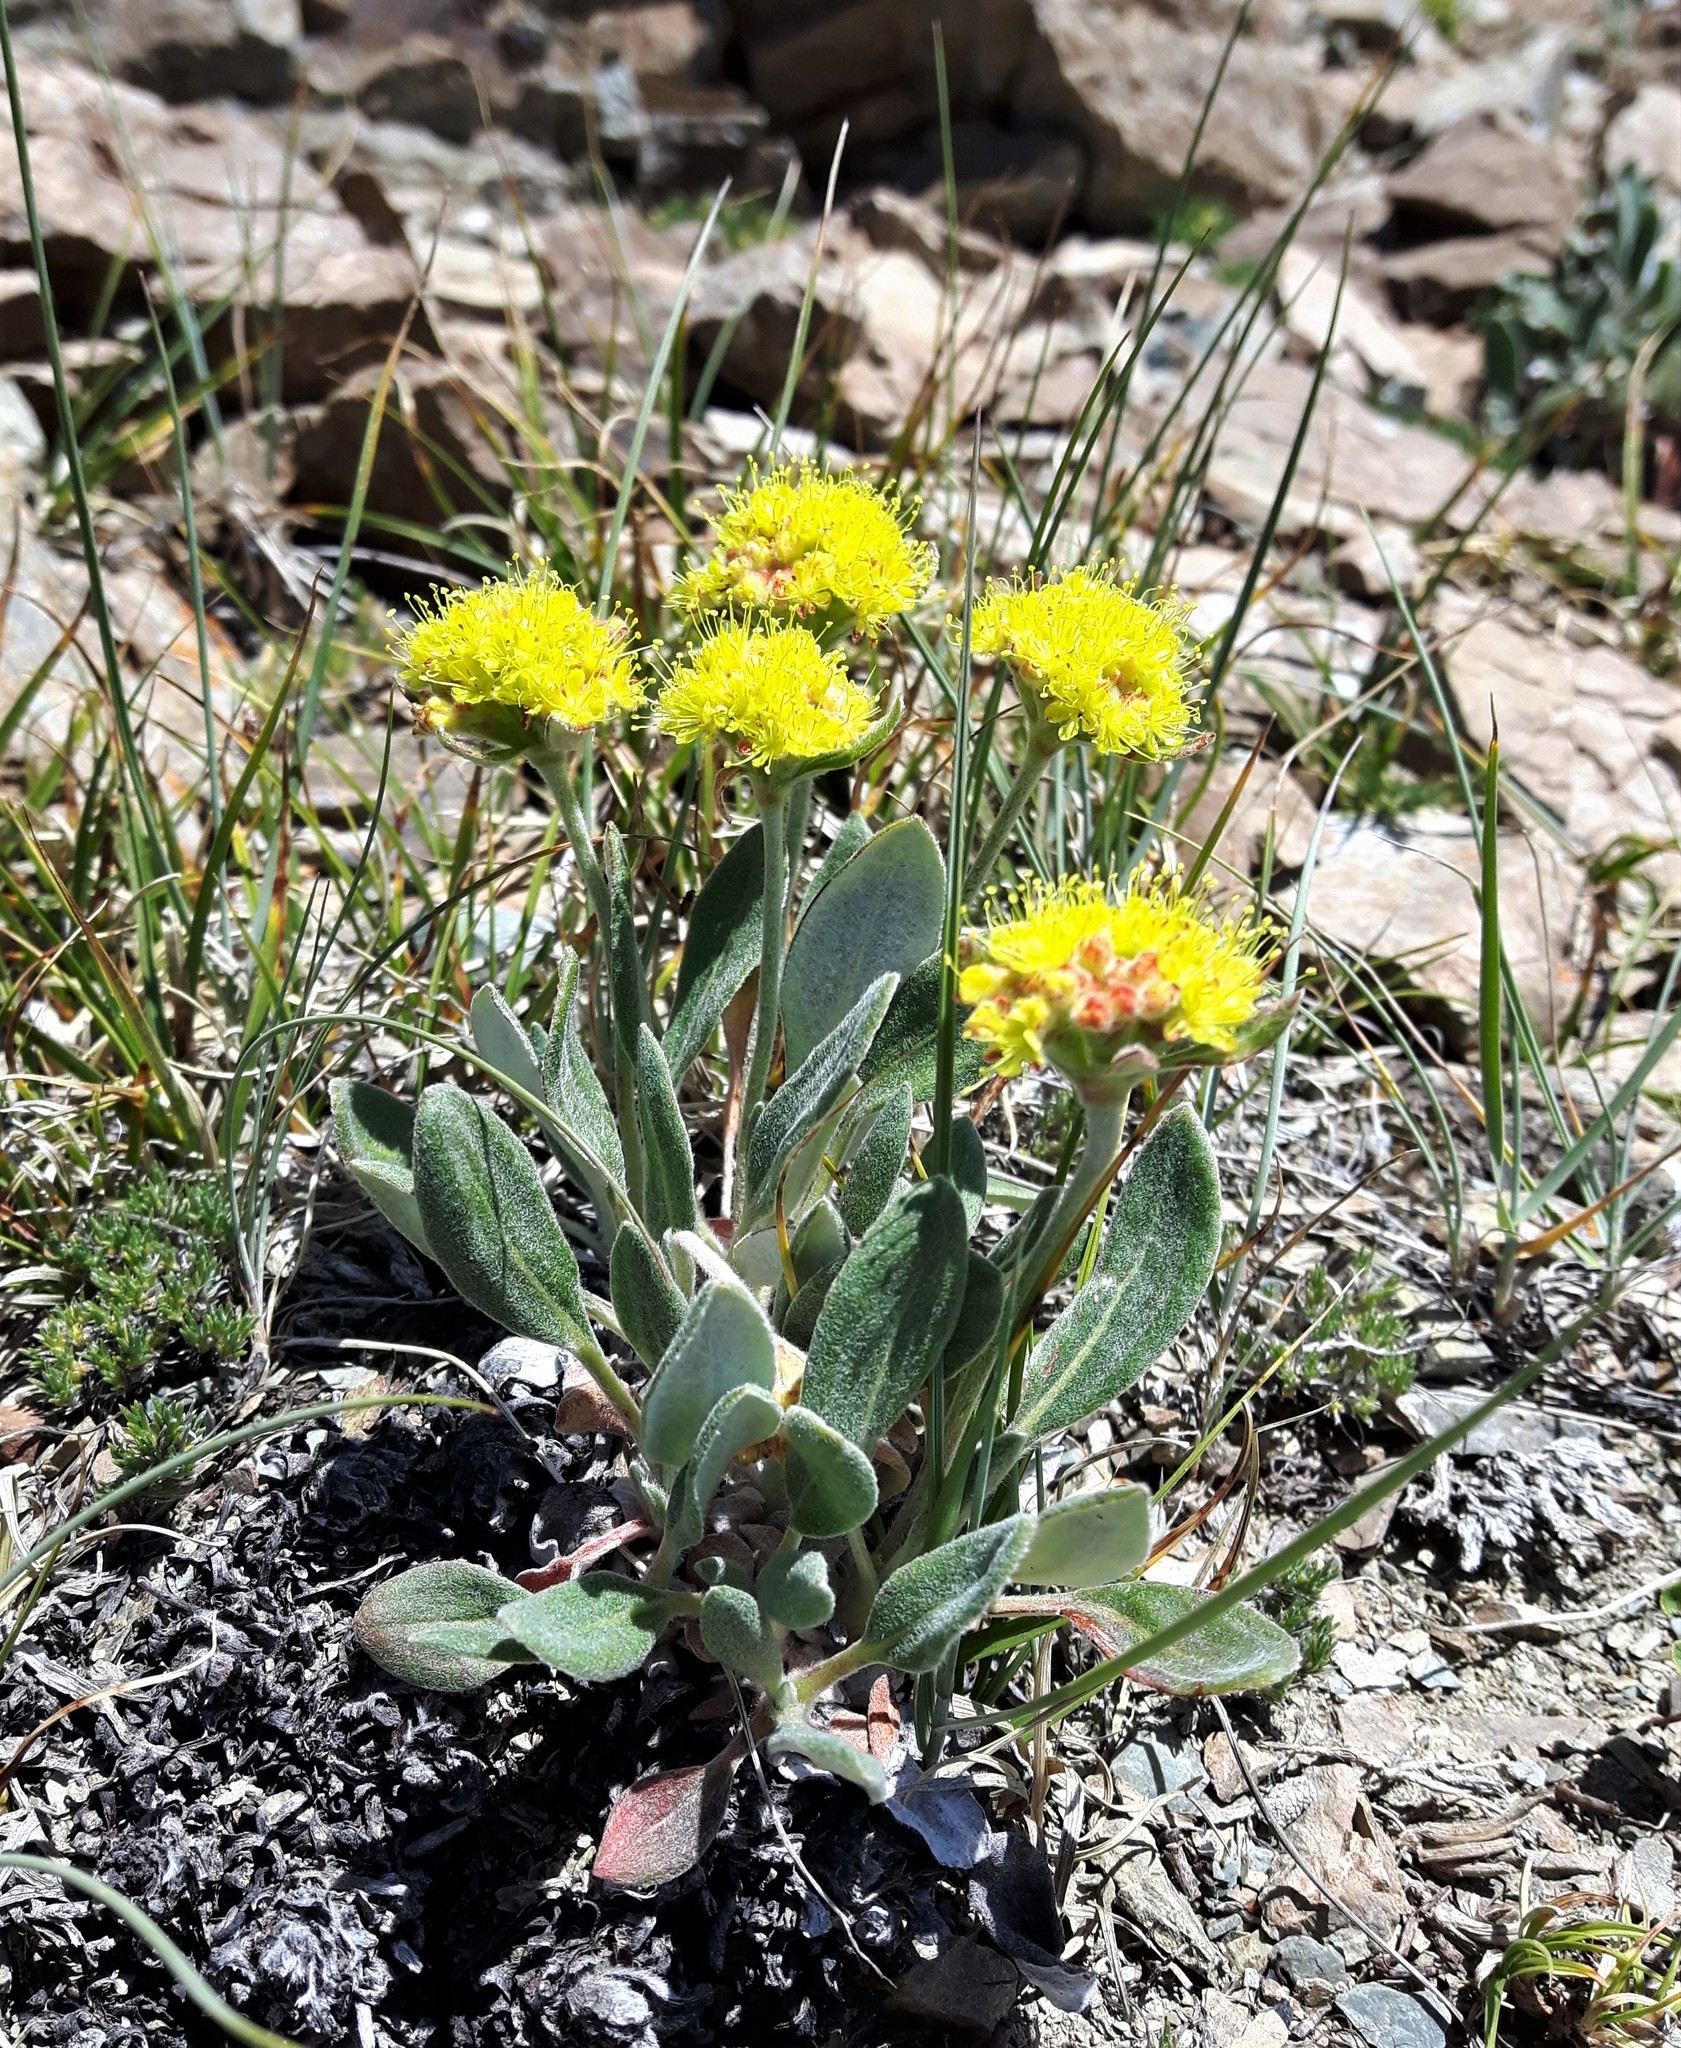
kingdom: Plantae
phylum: Tracheophyta
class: Magnoliopsida
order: Caryophyllales
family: Polygonaceae
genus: Eriogonum
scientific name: Eriogonum flavum
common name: Alpine golden wild buckwheat
